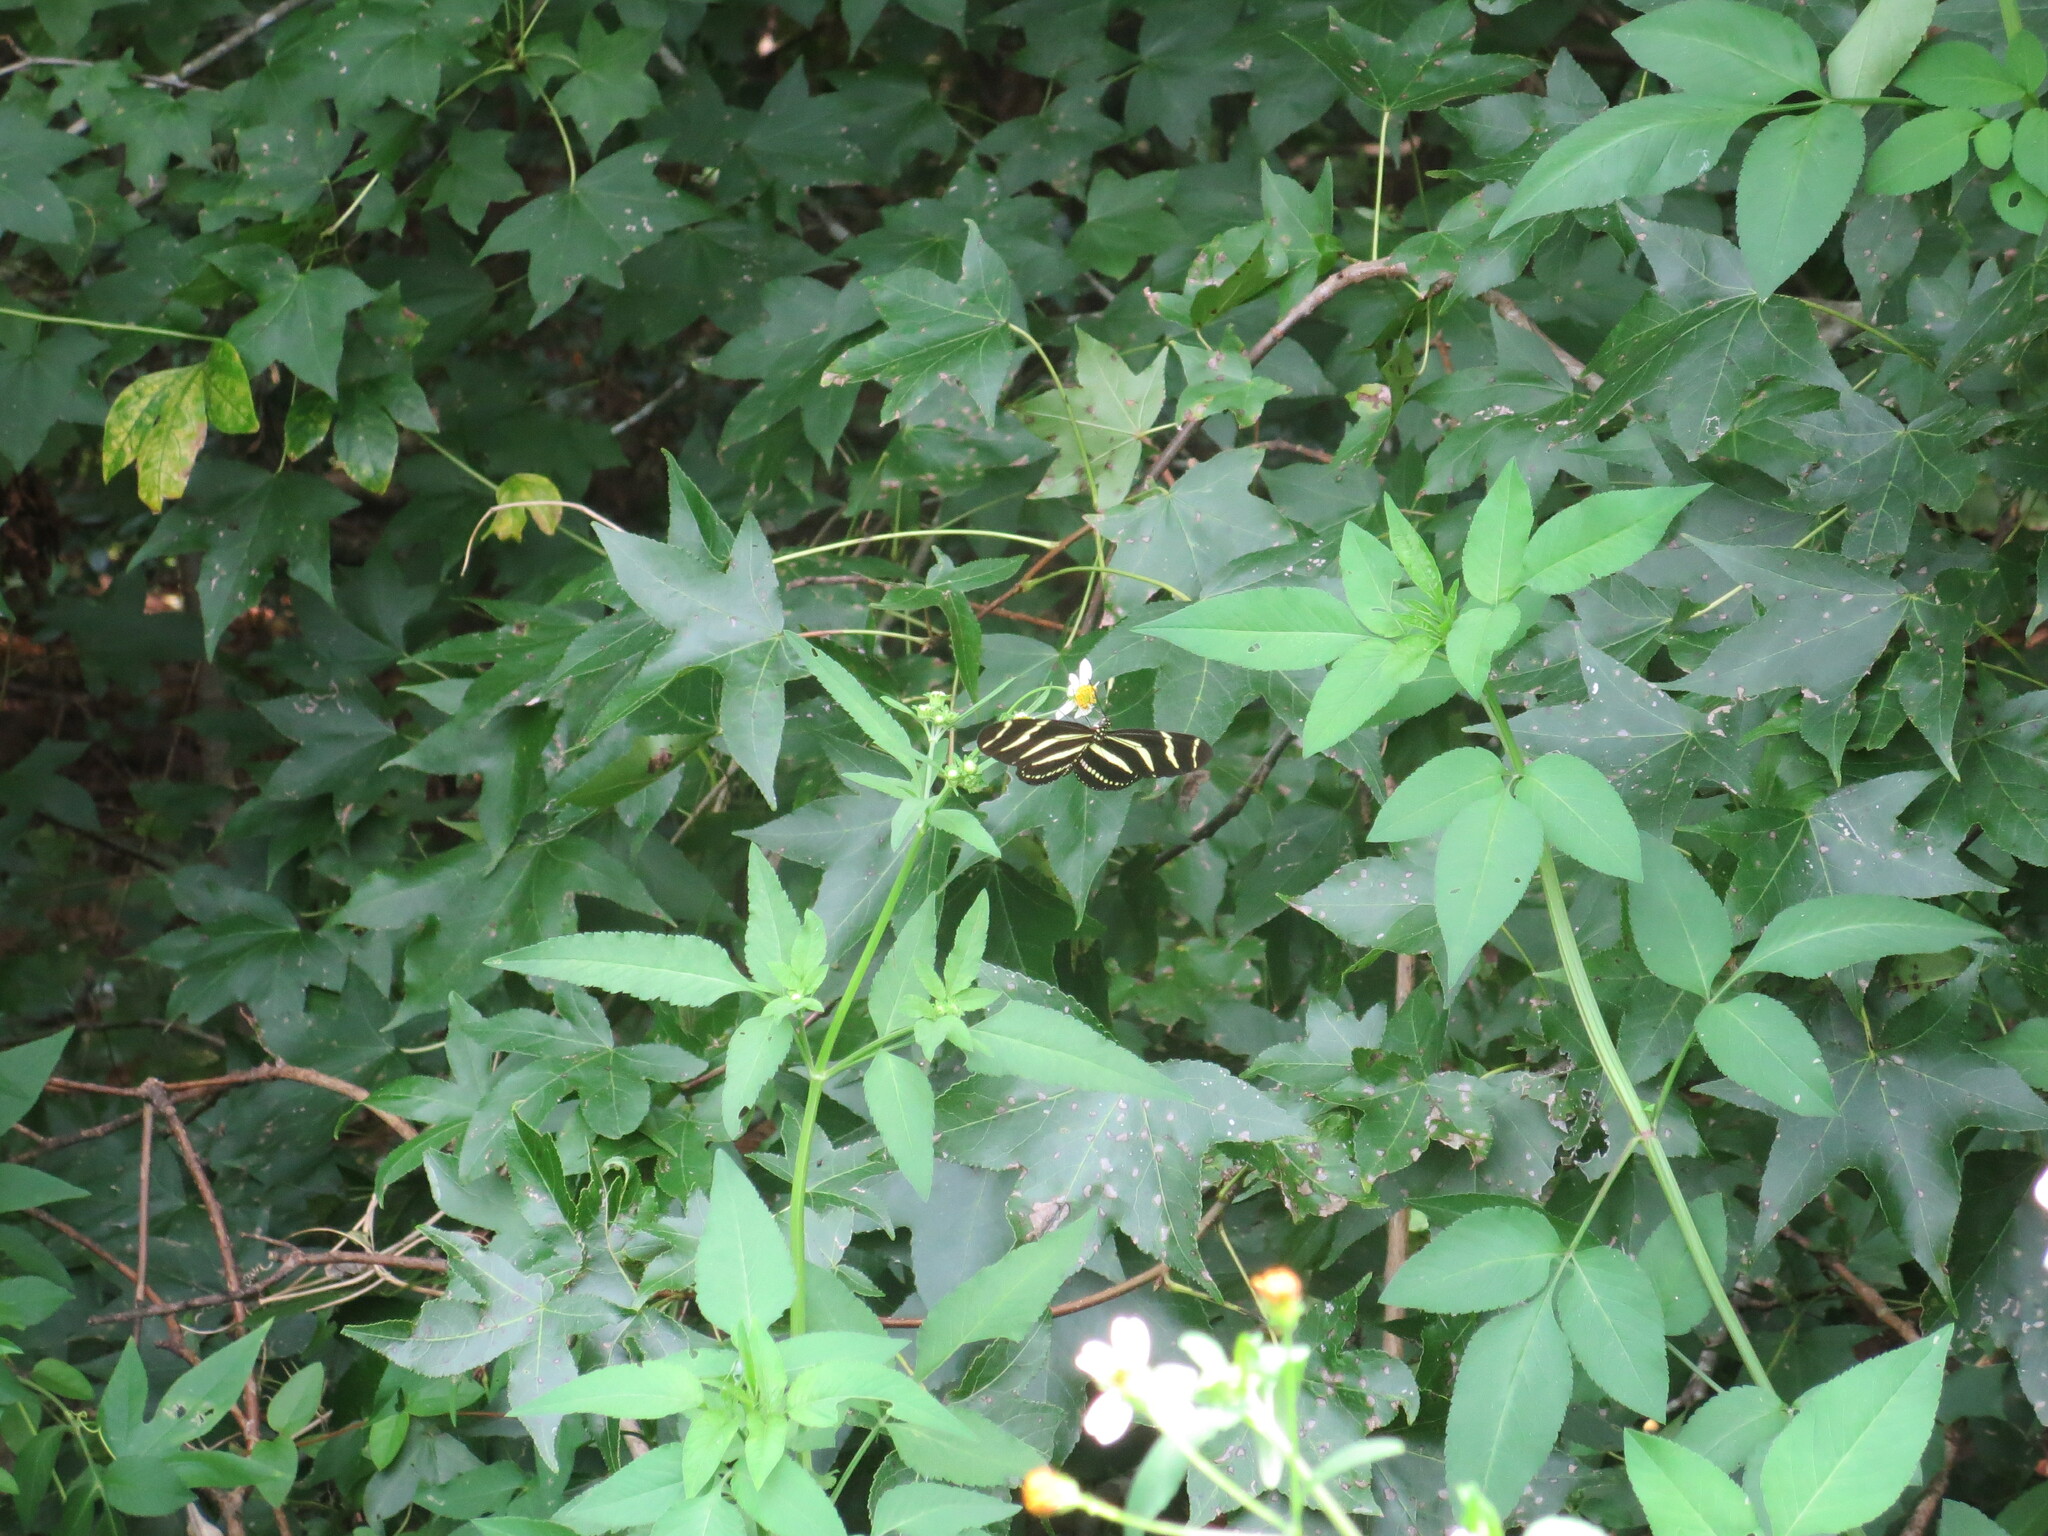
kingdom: Animalia
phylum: Arthropoda
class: Insecta
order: Lepidoptera
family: Nymphalidae
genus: Heliconius
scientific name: Heliconius charithonia
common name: Zebra long wing
